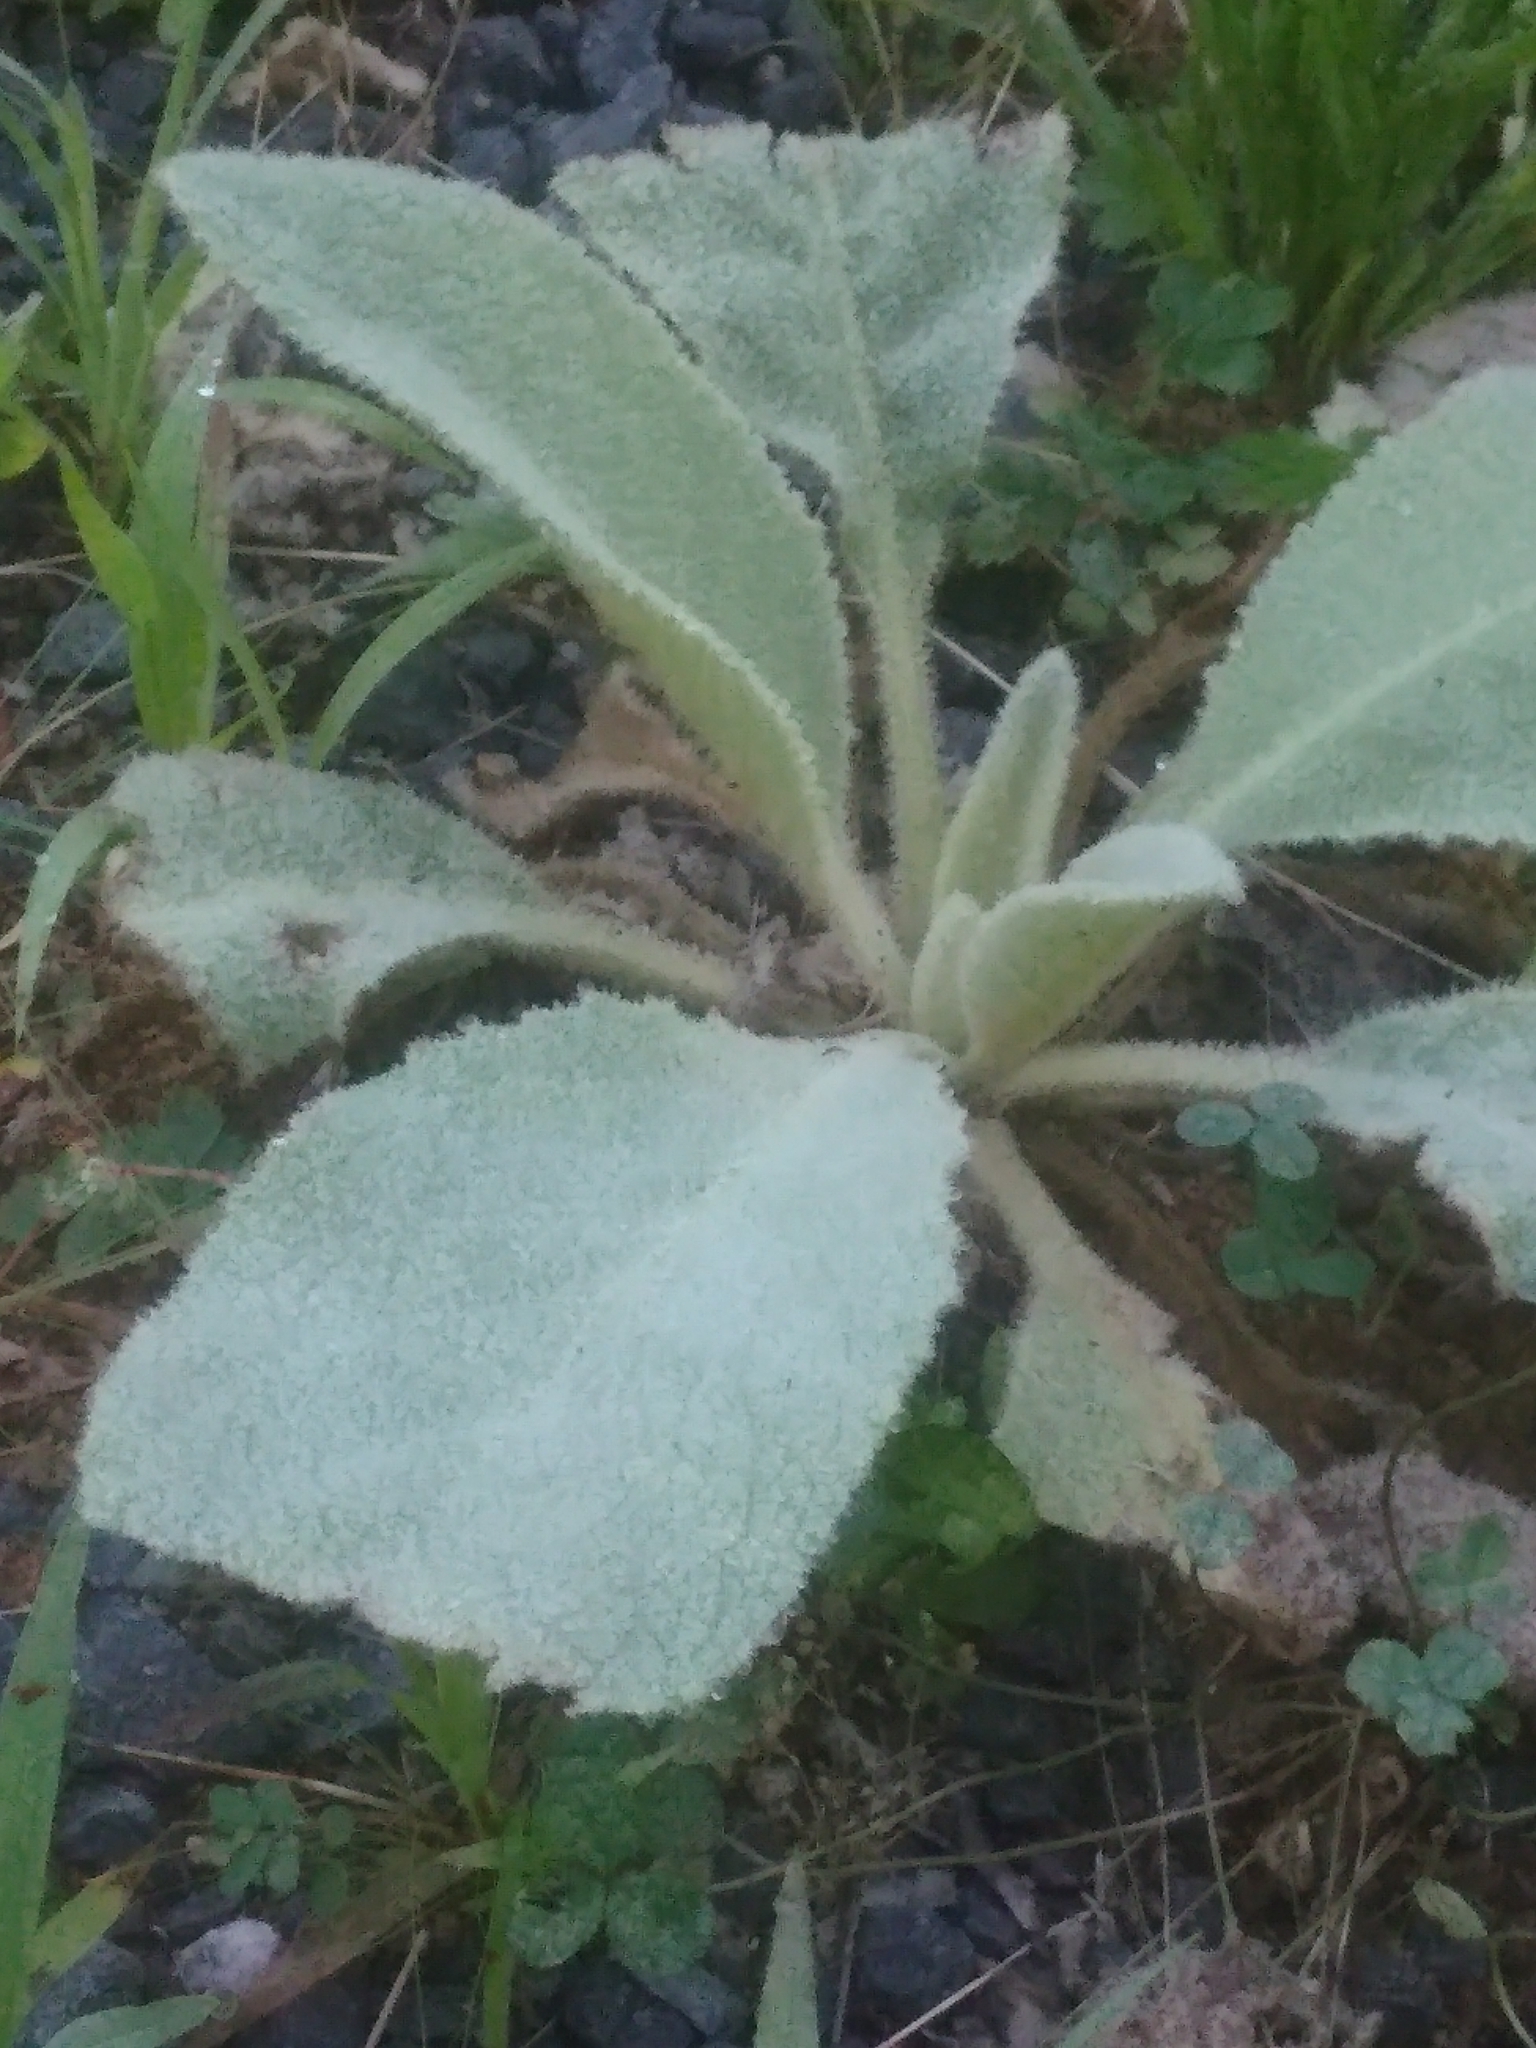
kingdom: Plantae
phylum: Tracheophyta
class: Magnoliopsida
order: Lamiales
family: Scrophulariaceae
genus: Verbascum
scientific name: Verbascum thapsus
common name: Common mullein
